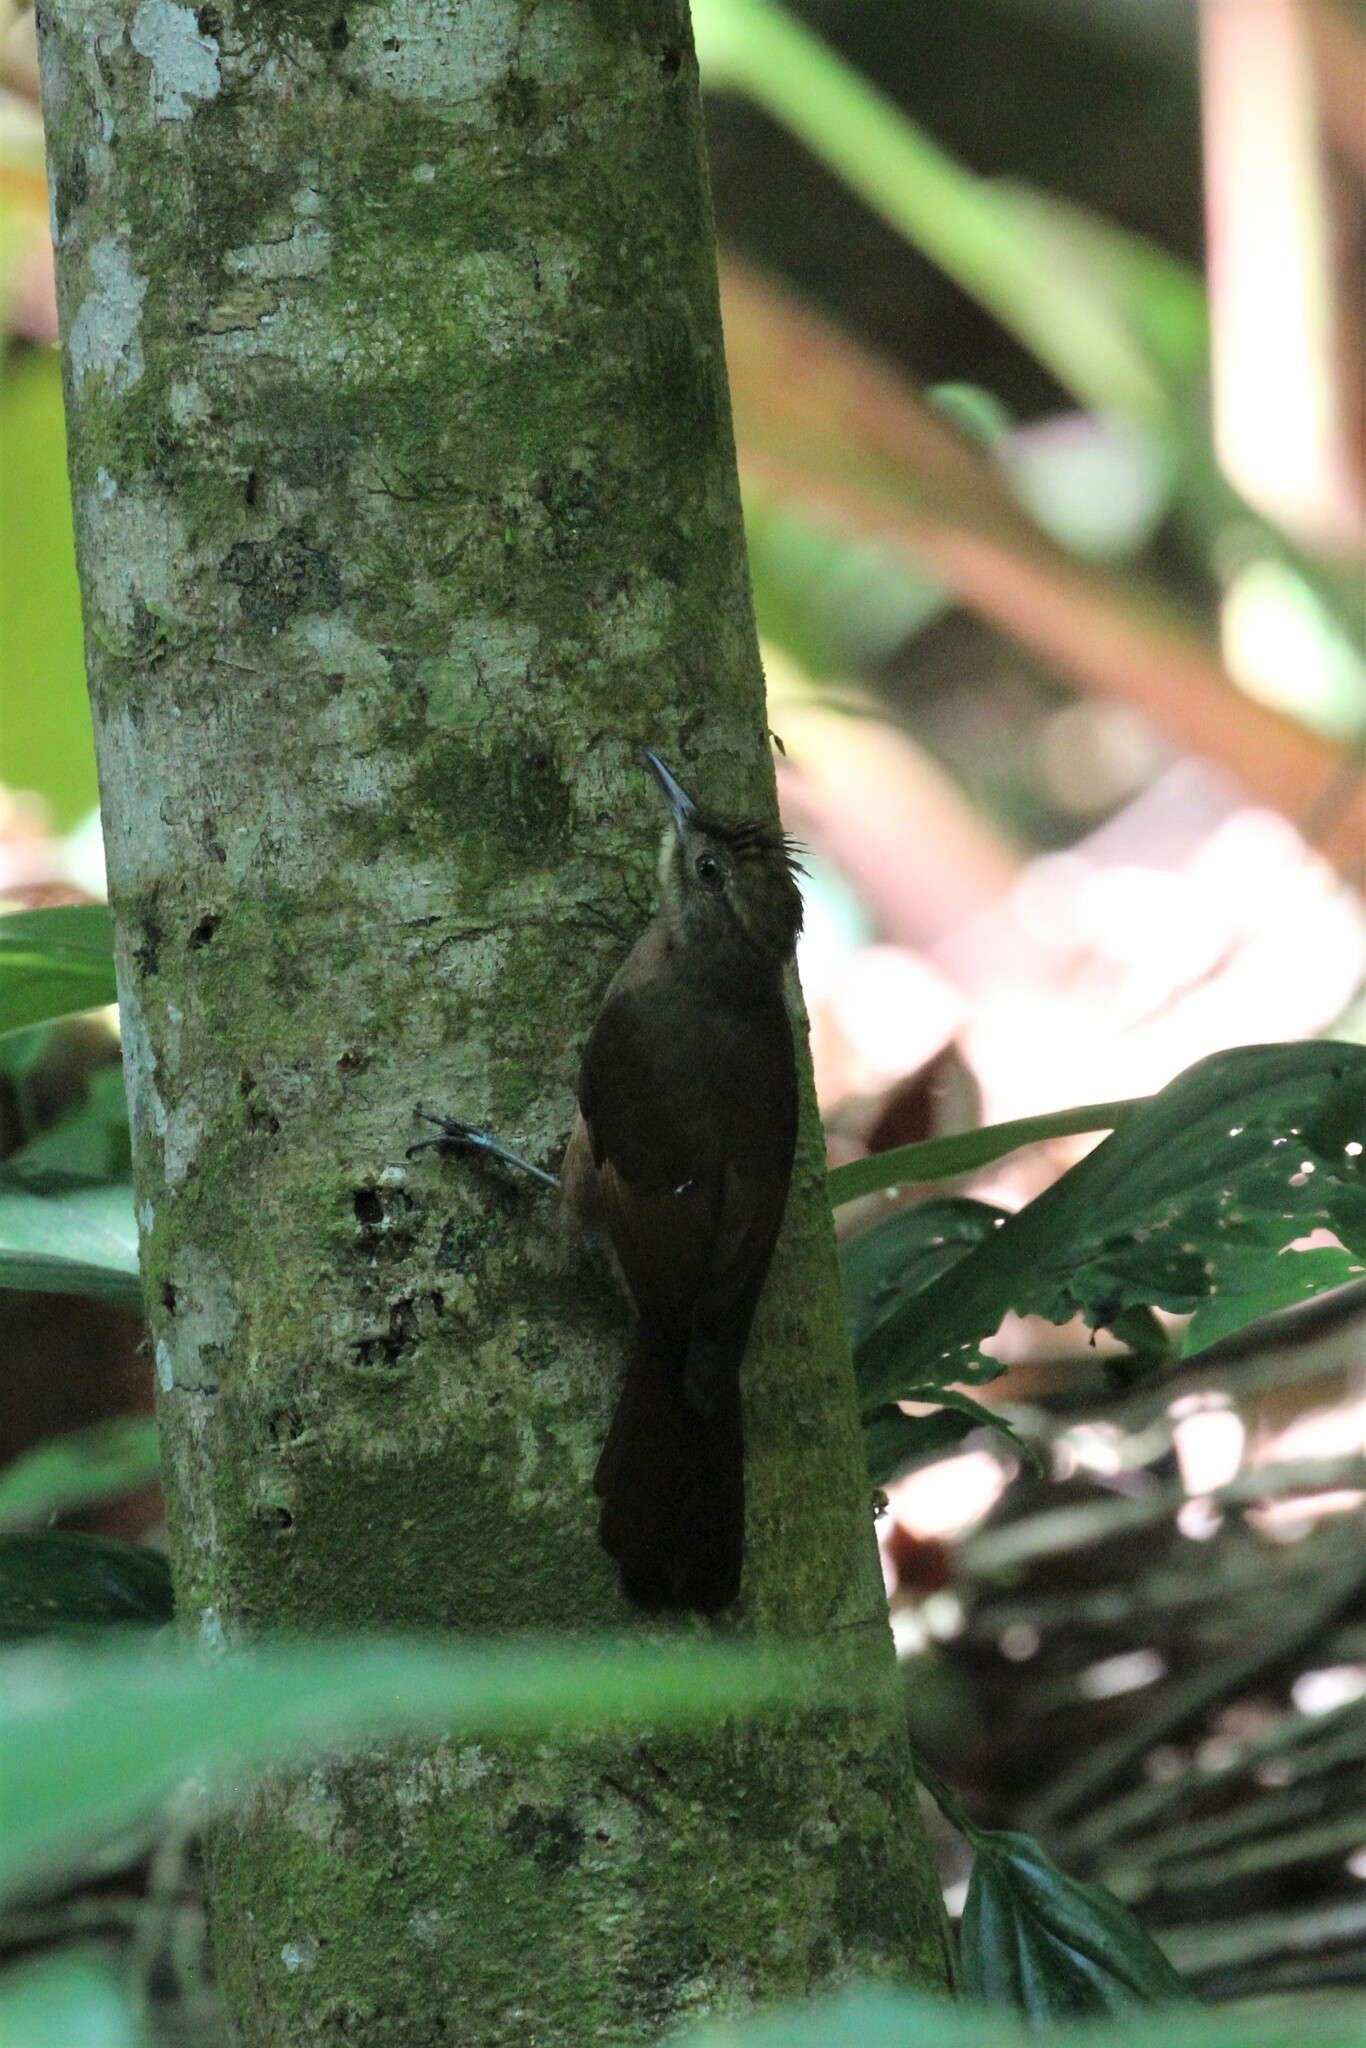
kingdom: Animalia
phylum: Chordata
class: Aves
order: Passeriformes
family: Furnariidae
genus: Dendrocincla
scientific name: Dendrocincla anabatina
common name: Tawny-winged woodcreeper
